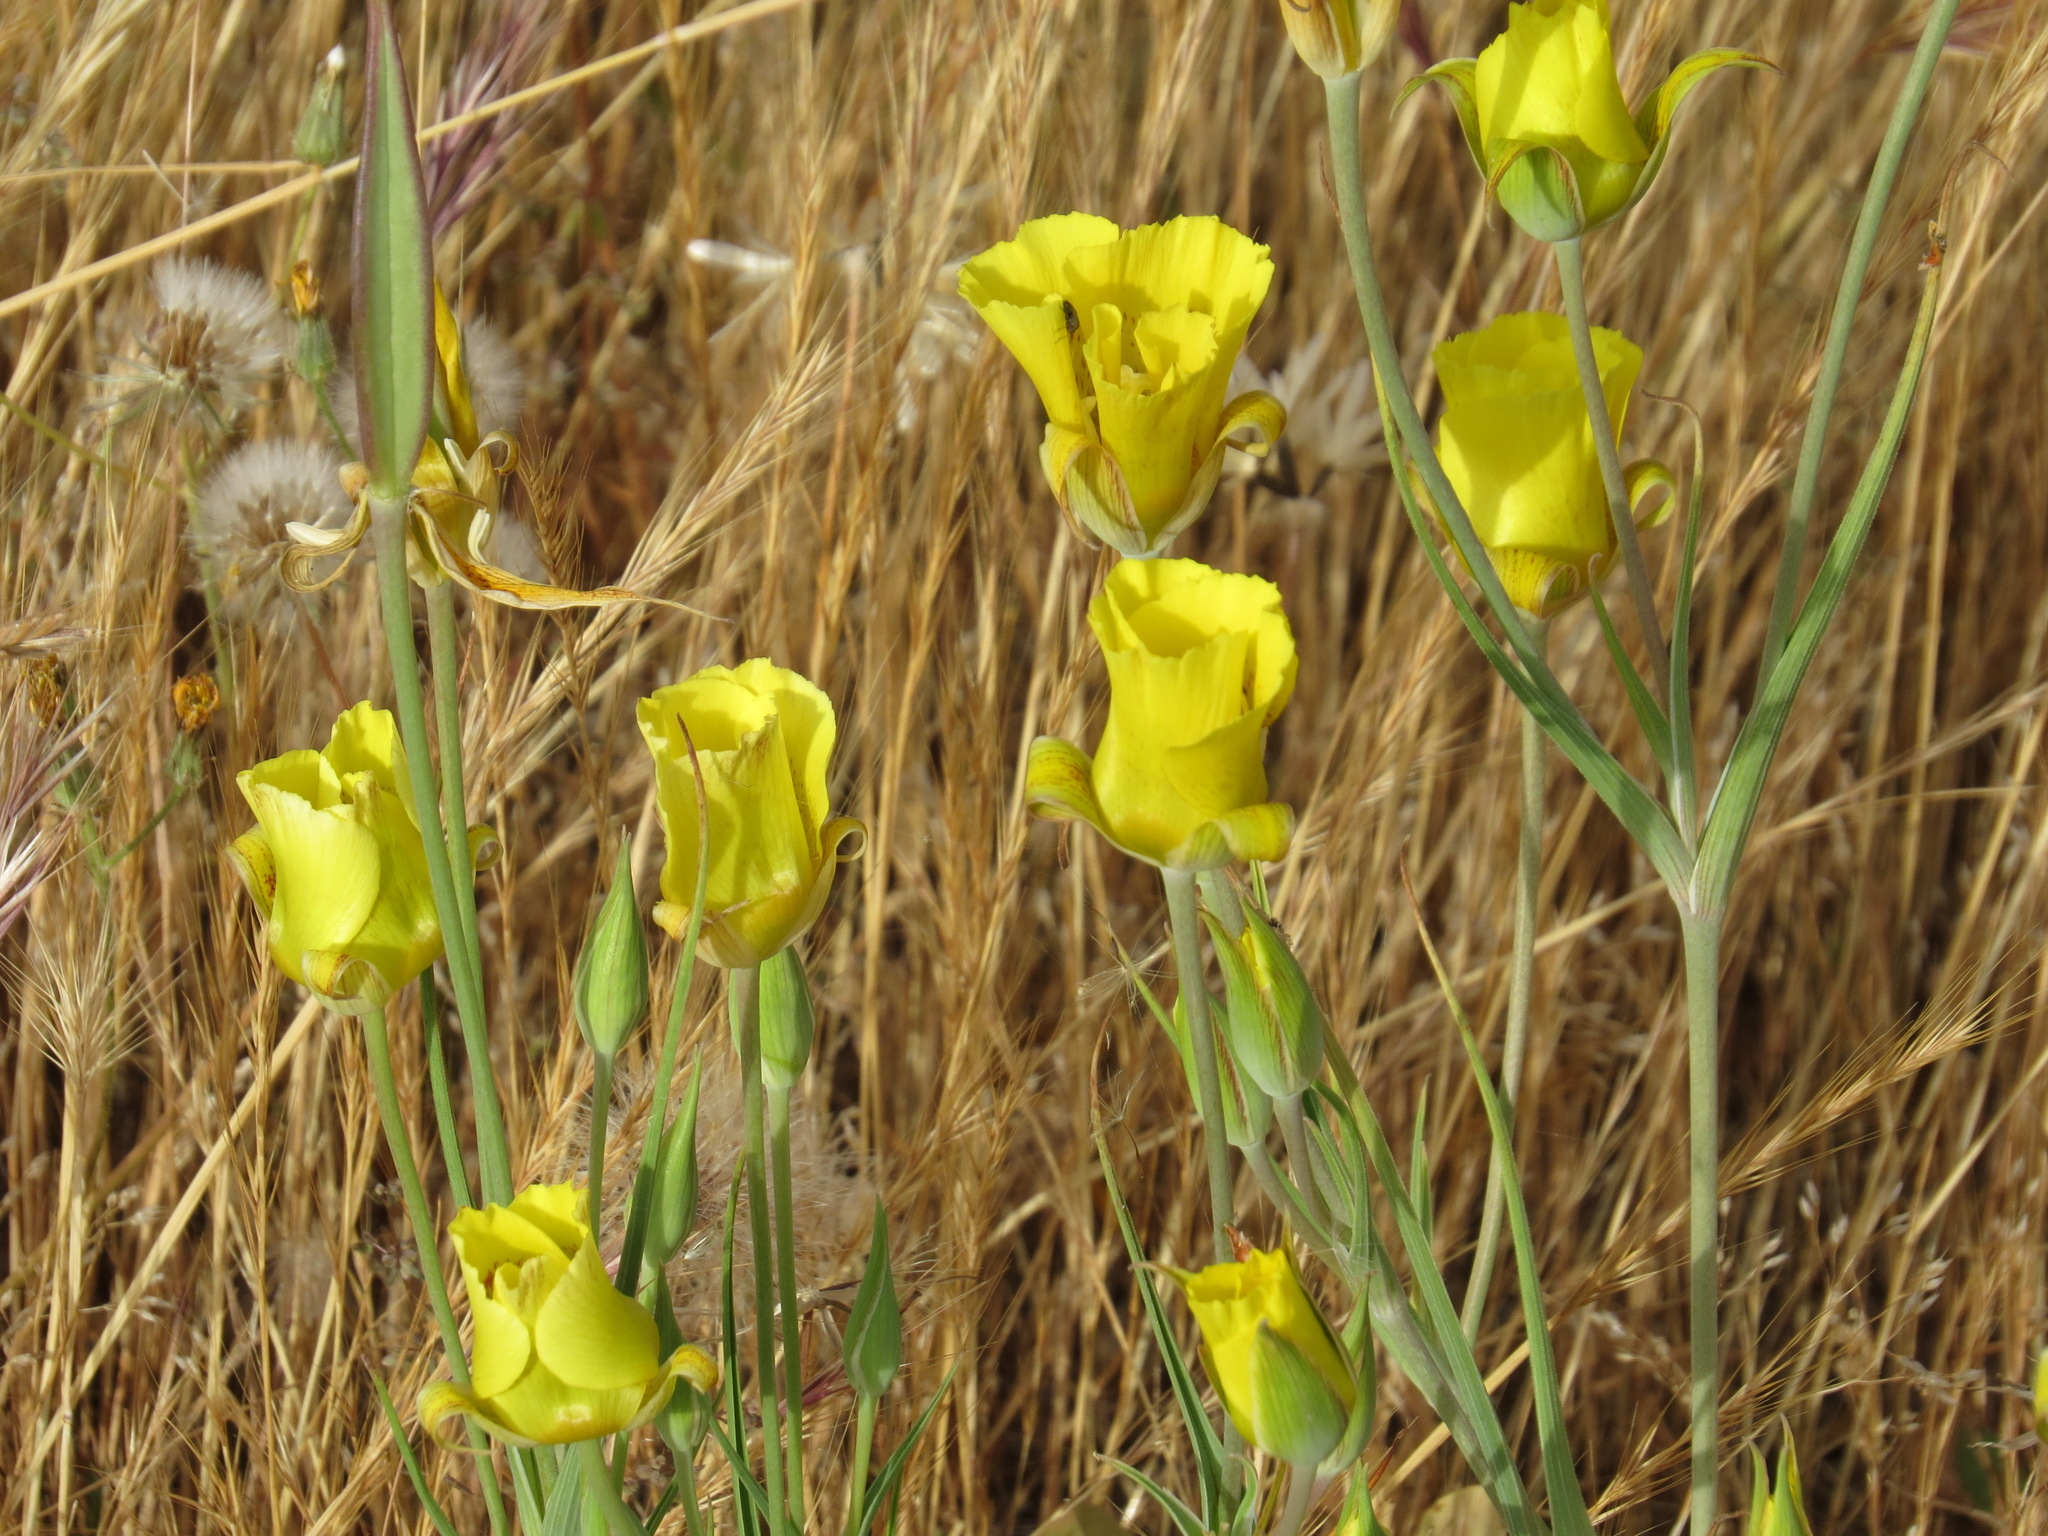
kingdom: Plantae
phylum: Tracheophyta
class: Liliopsida
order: Liliales
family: Liliaceae
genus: Calochortus
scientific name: Calochortus luteus
